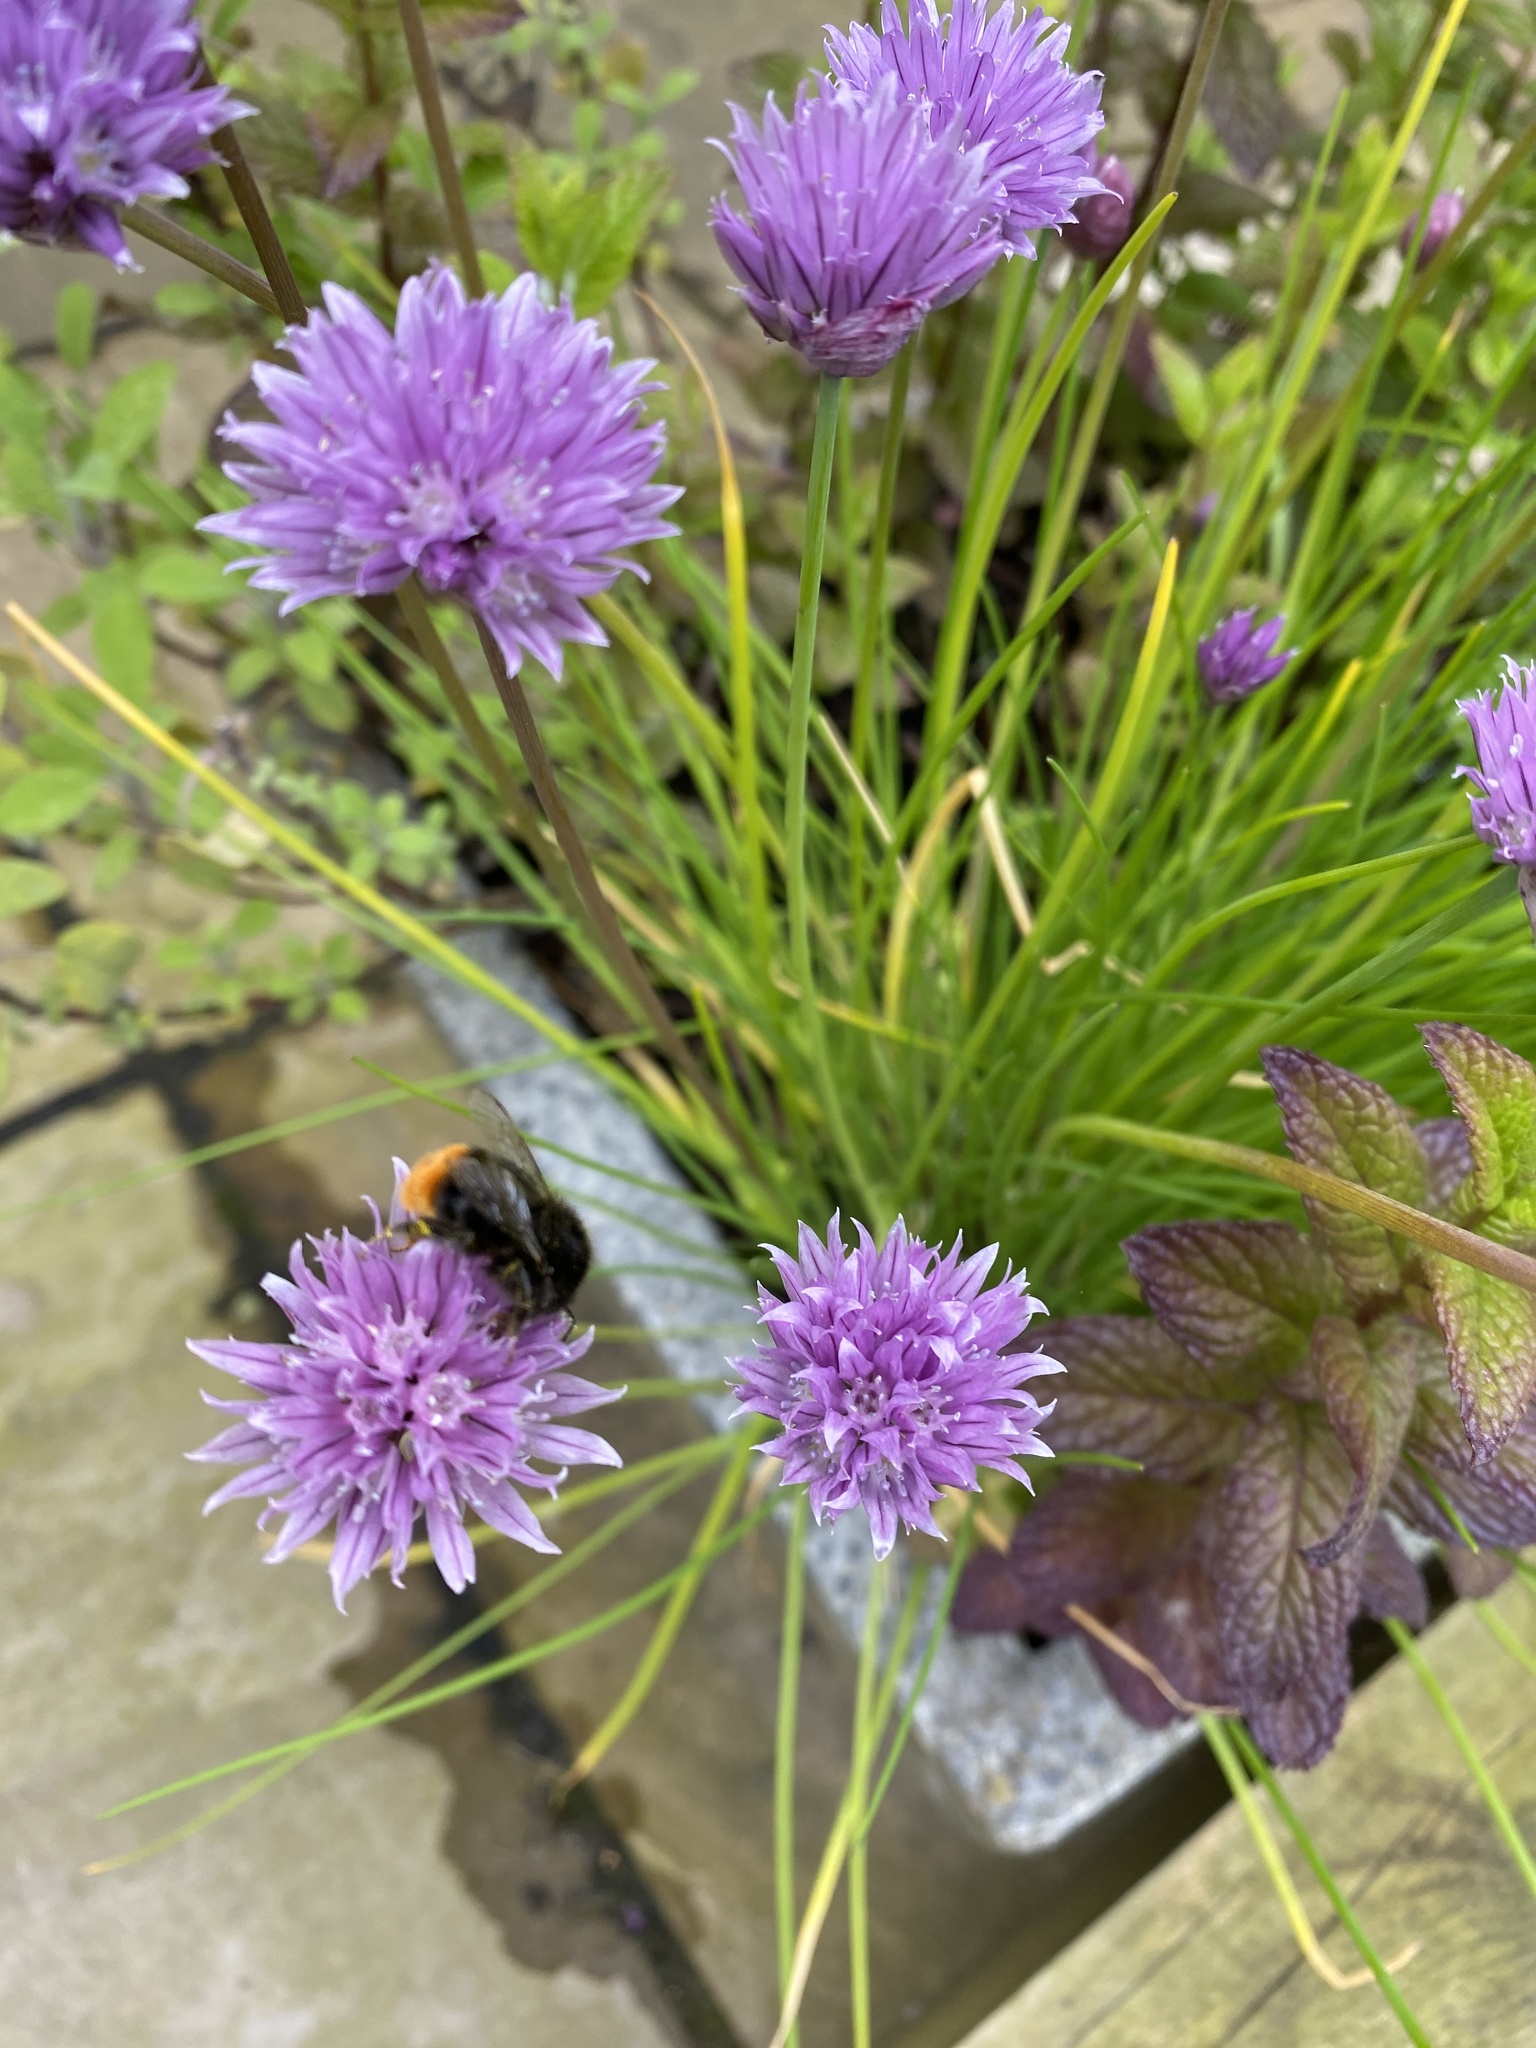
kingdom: Animalia
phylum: Arthropoda
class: Insecta
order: Hymenoptera
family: Apidae
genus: Bombus
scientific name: Bombus lapidarius
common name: Large red-tailed humble-bee
